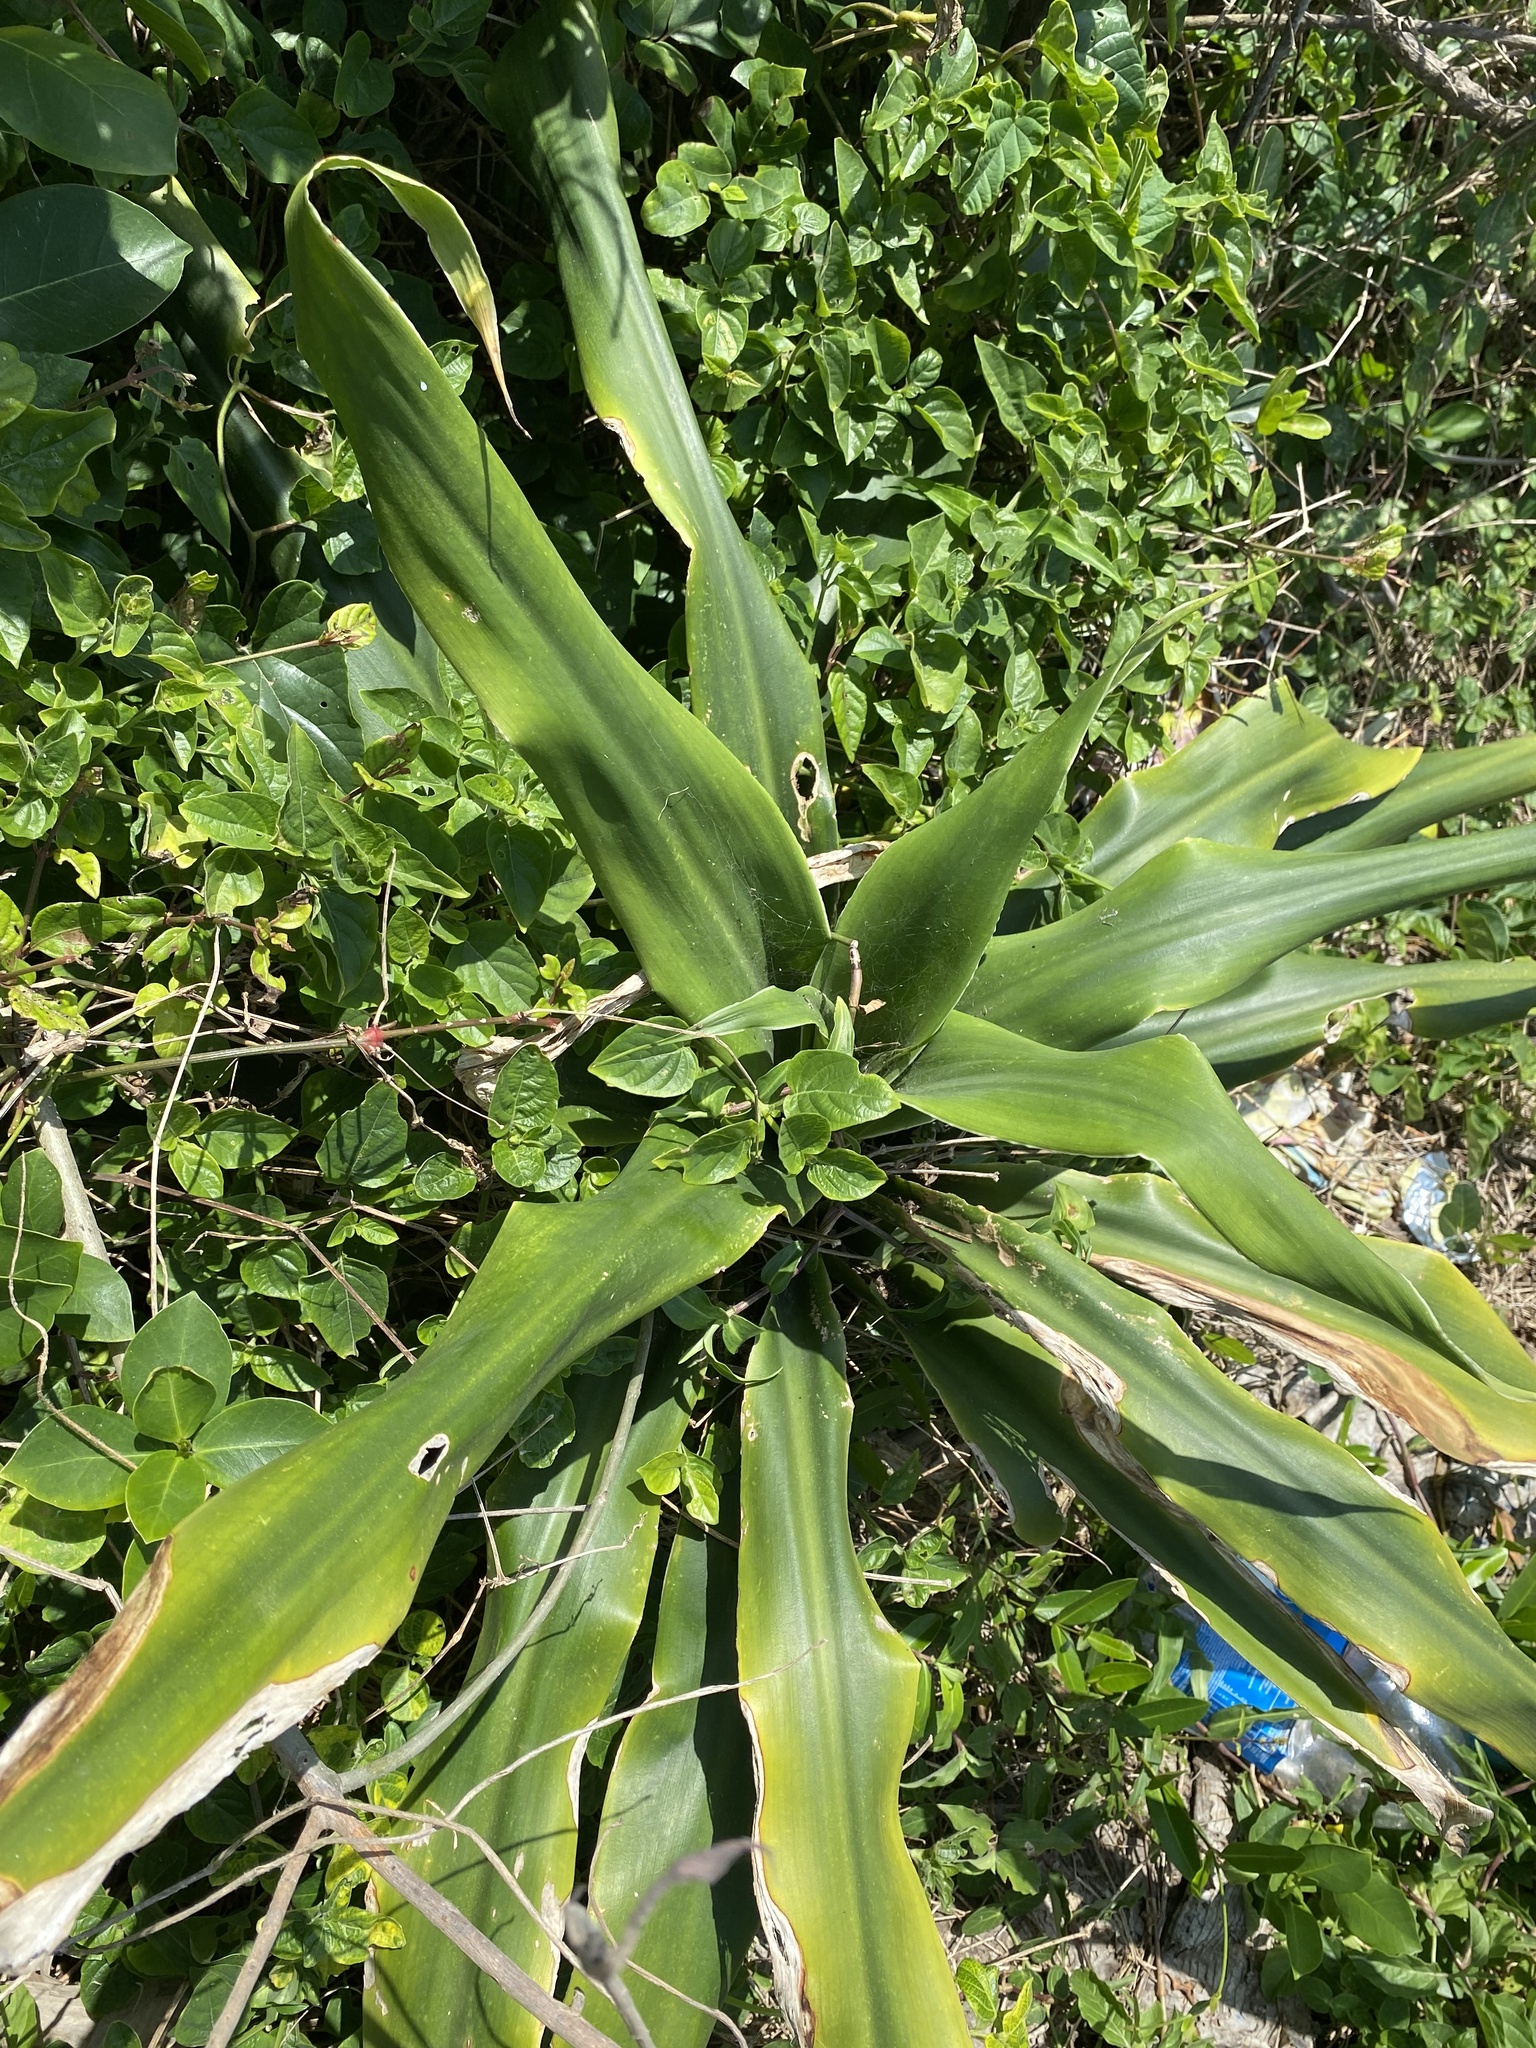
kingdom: Plantae
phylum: Tracheophyta
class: Liliopsida
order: Asparagales
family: Asparagaceae
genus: Dracaena
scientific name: Dracaena aletriformis
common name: Large-leaved dragon tree
